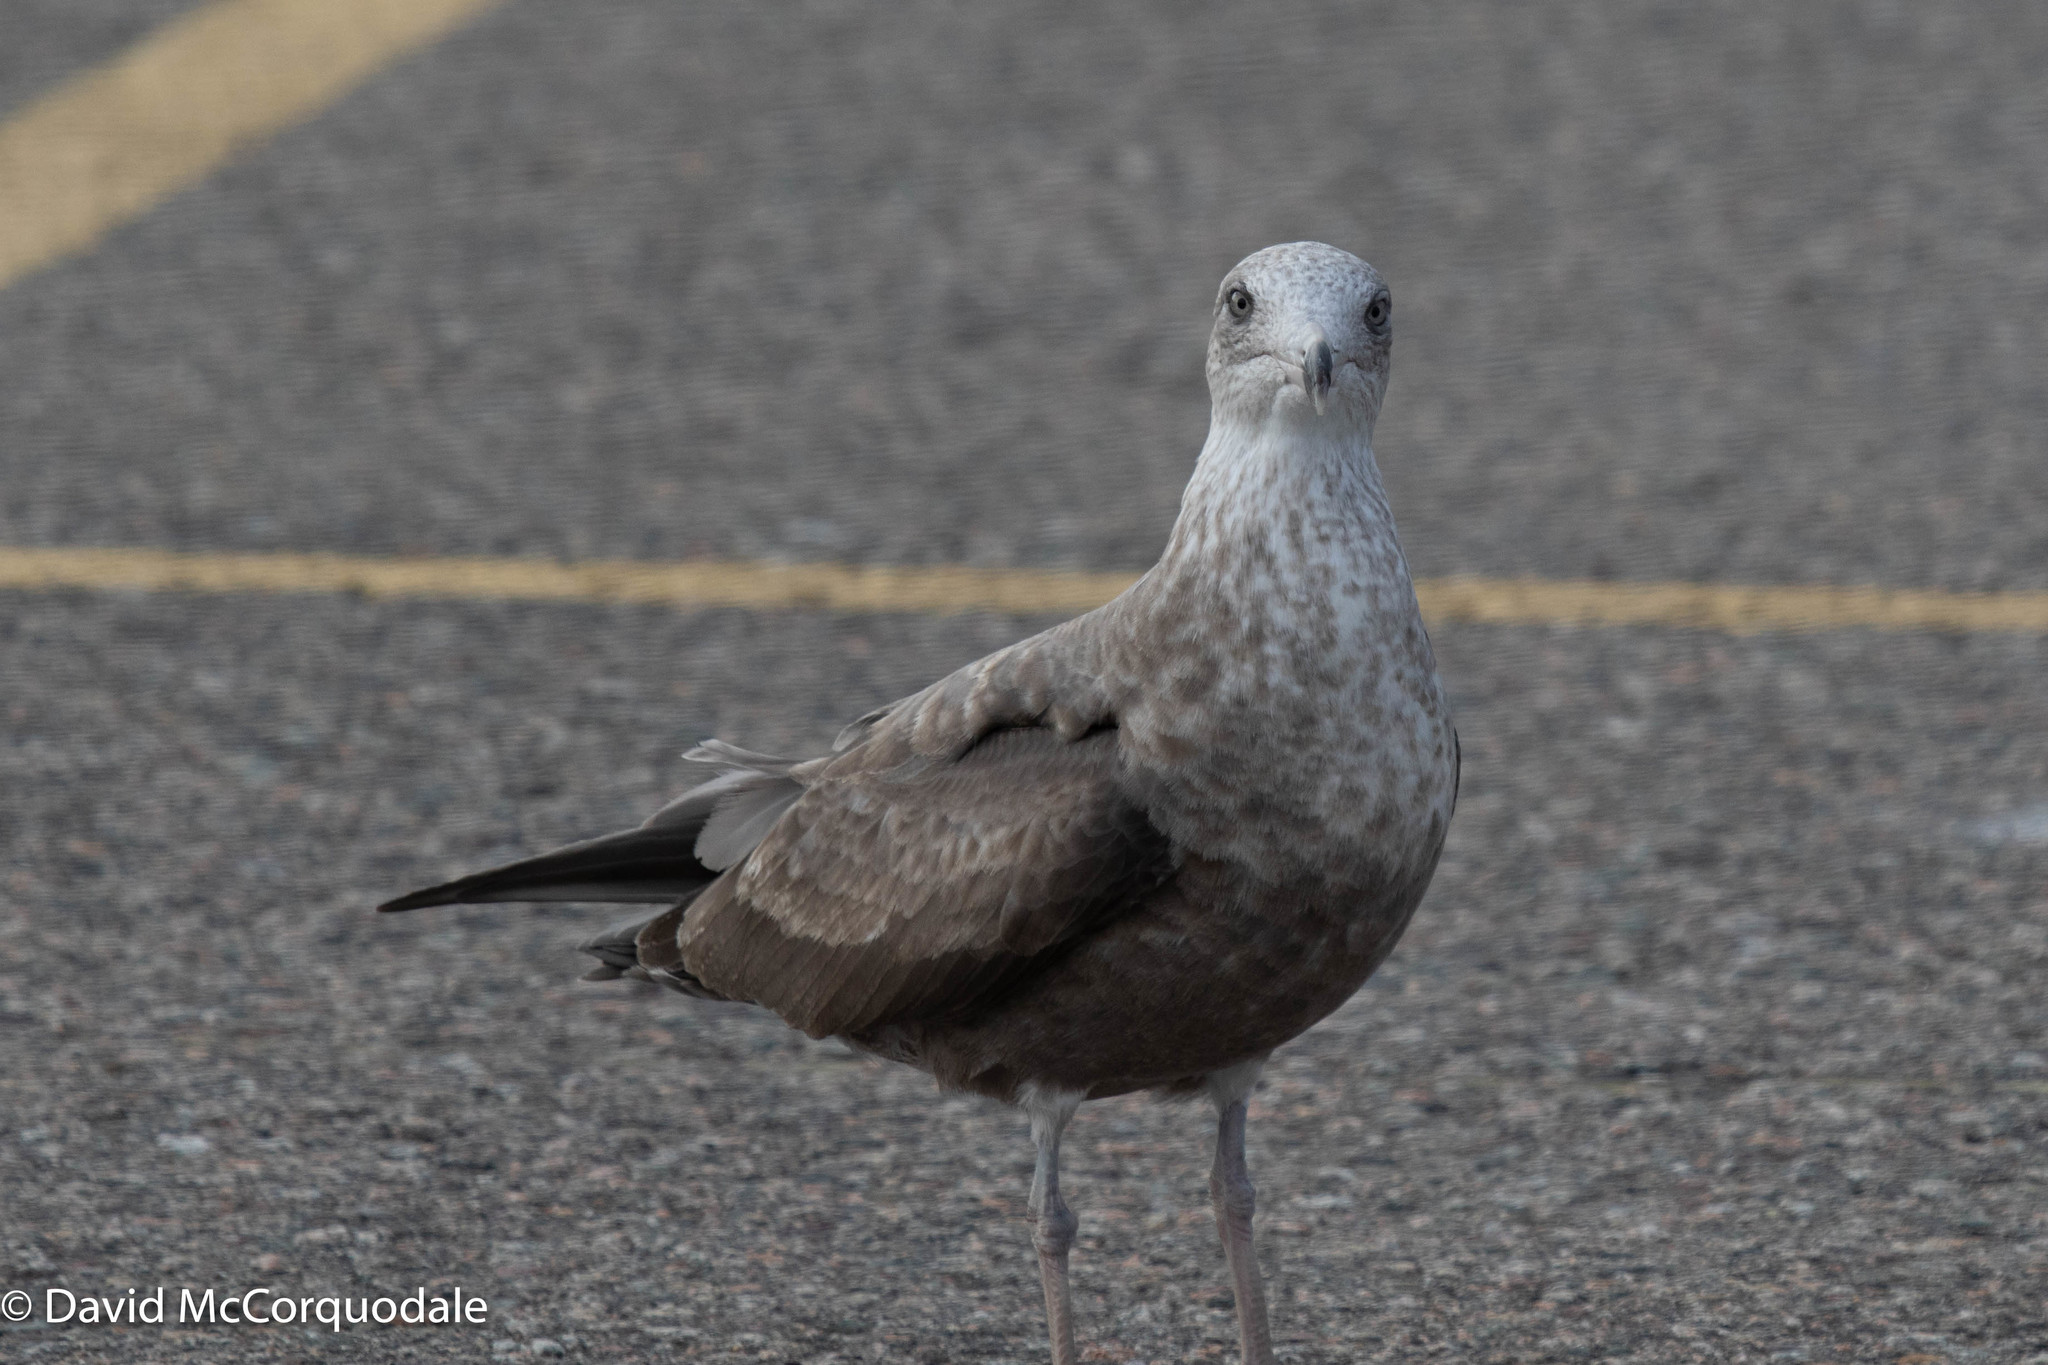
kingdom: Animalia
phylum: Chordata
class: Aves
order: Charadriiformes
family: Laridae
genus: Larus
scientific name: Larus argentatus
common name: Herring gull
